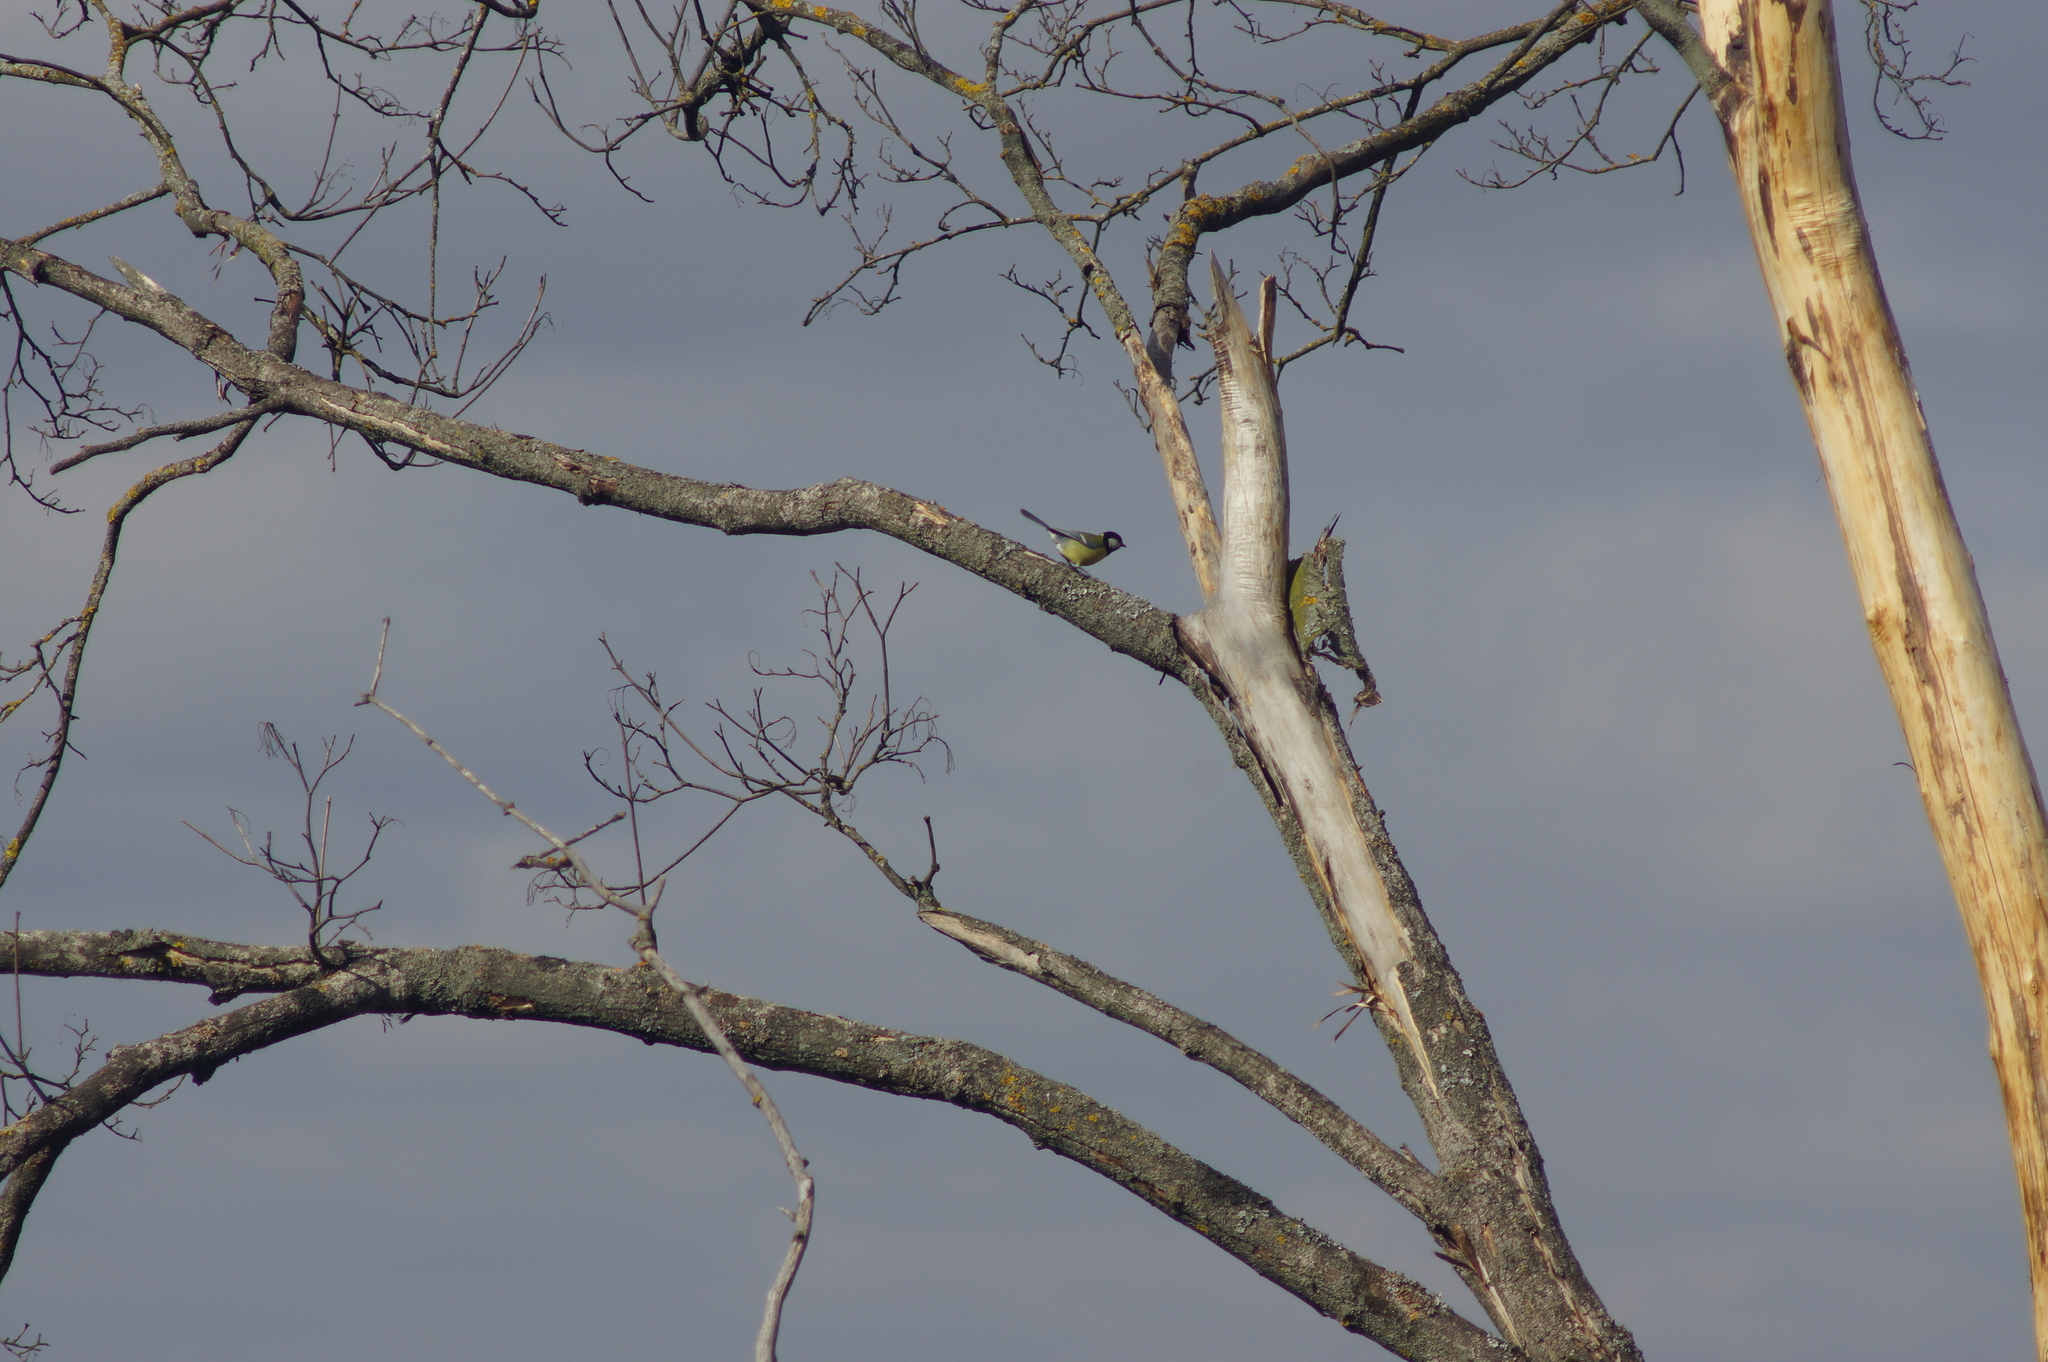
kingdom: Animalia
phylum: Chordata
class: Aves
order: Passeriformes
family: Paridae
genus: Parus
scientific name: Parus major
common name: Great tit
